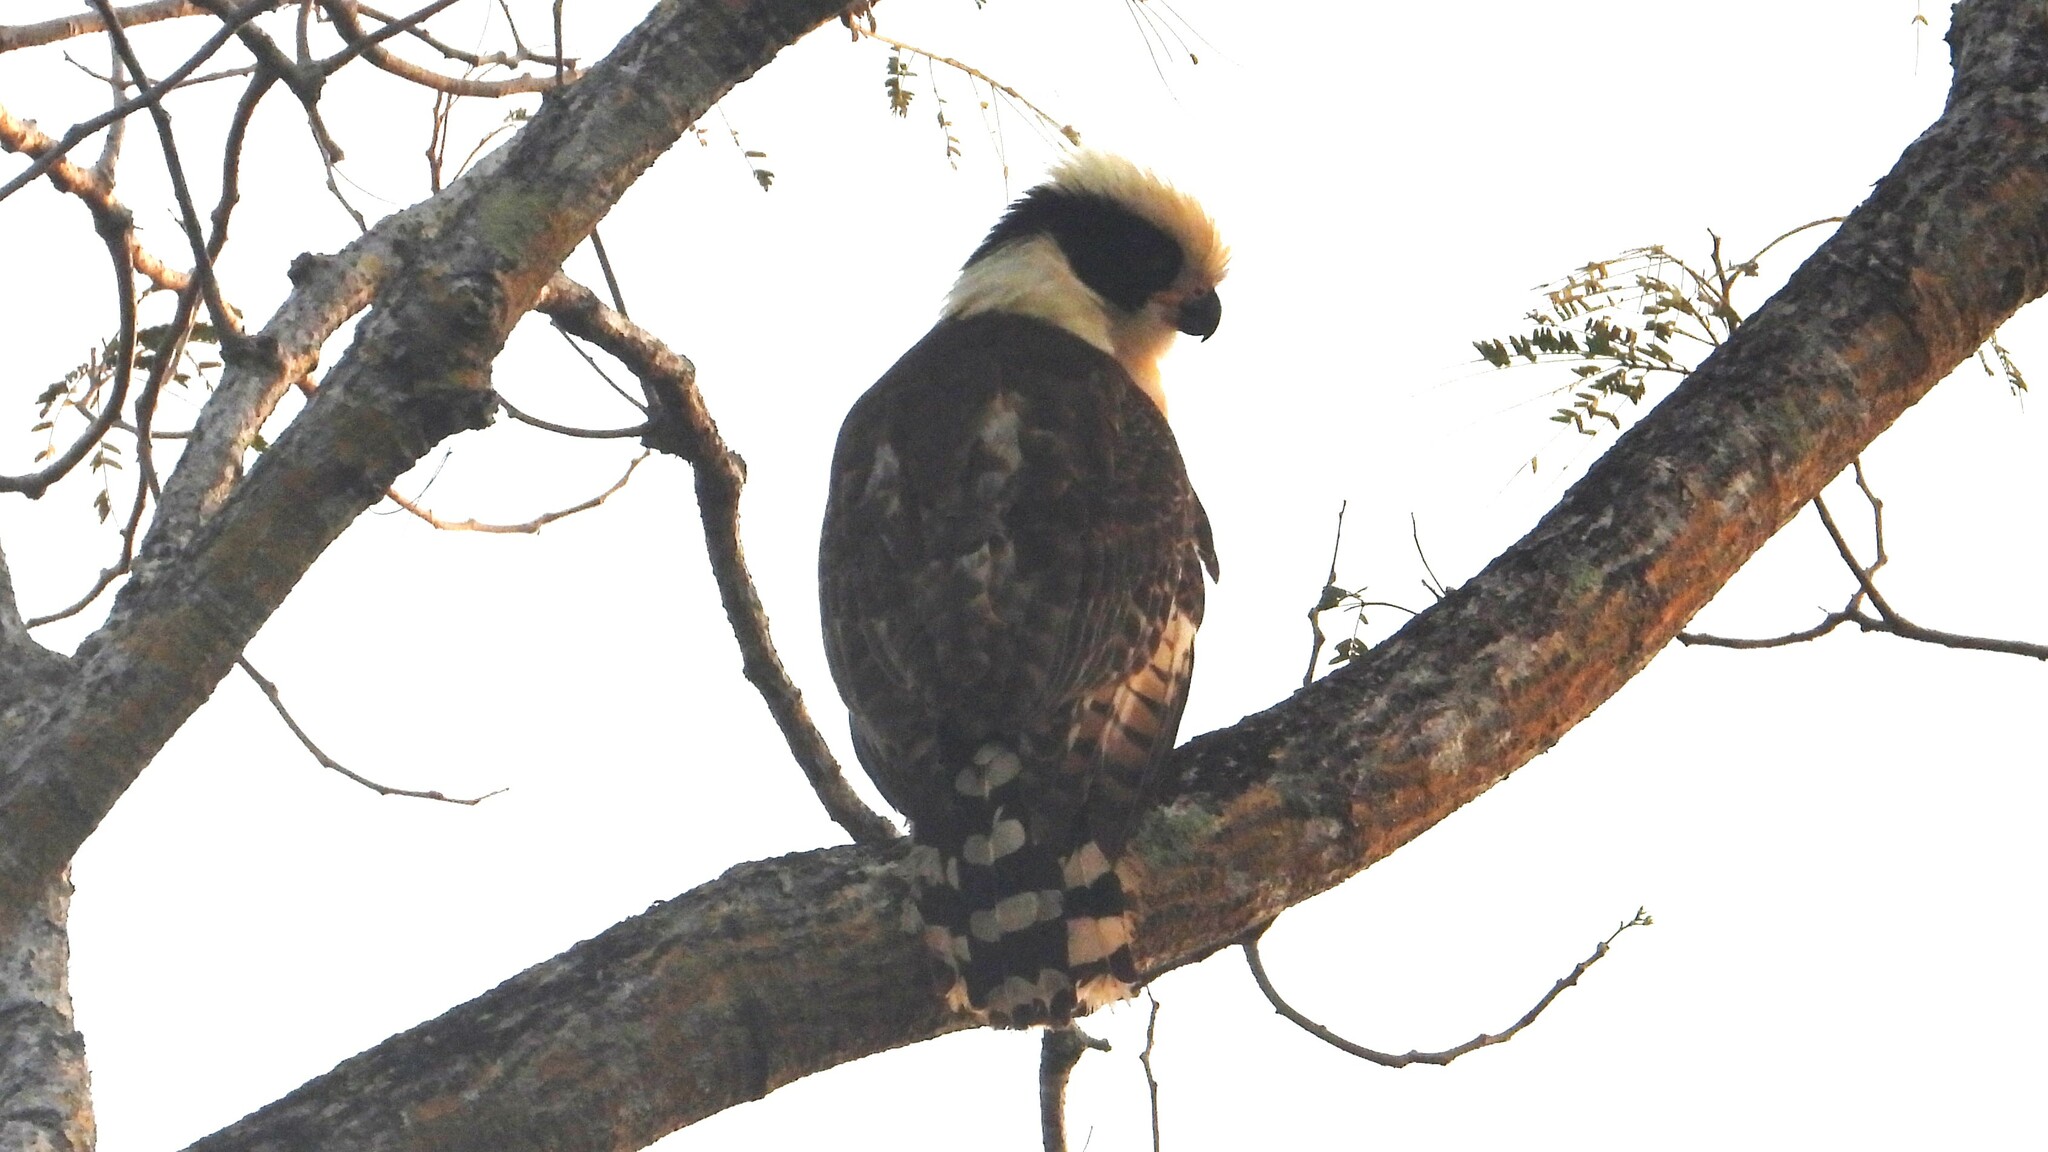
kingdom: Animalia
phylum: Chordata
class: Aves
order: Falconiformes
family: Falconidae
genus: Herpetotheres
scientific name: Herpetotheres cachinnans
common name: Laughing falcon
